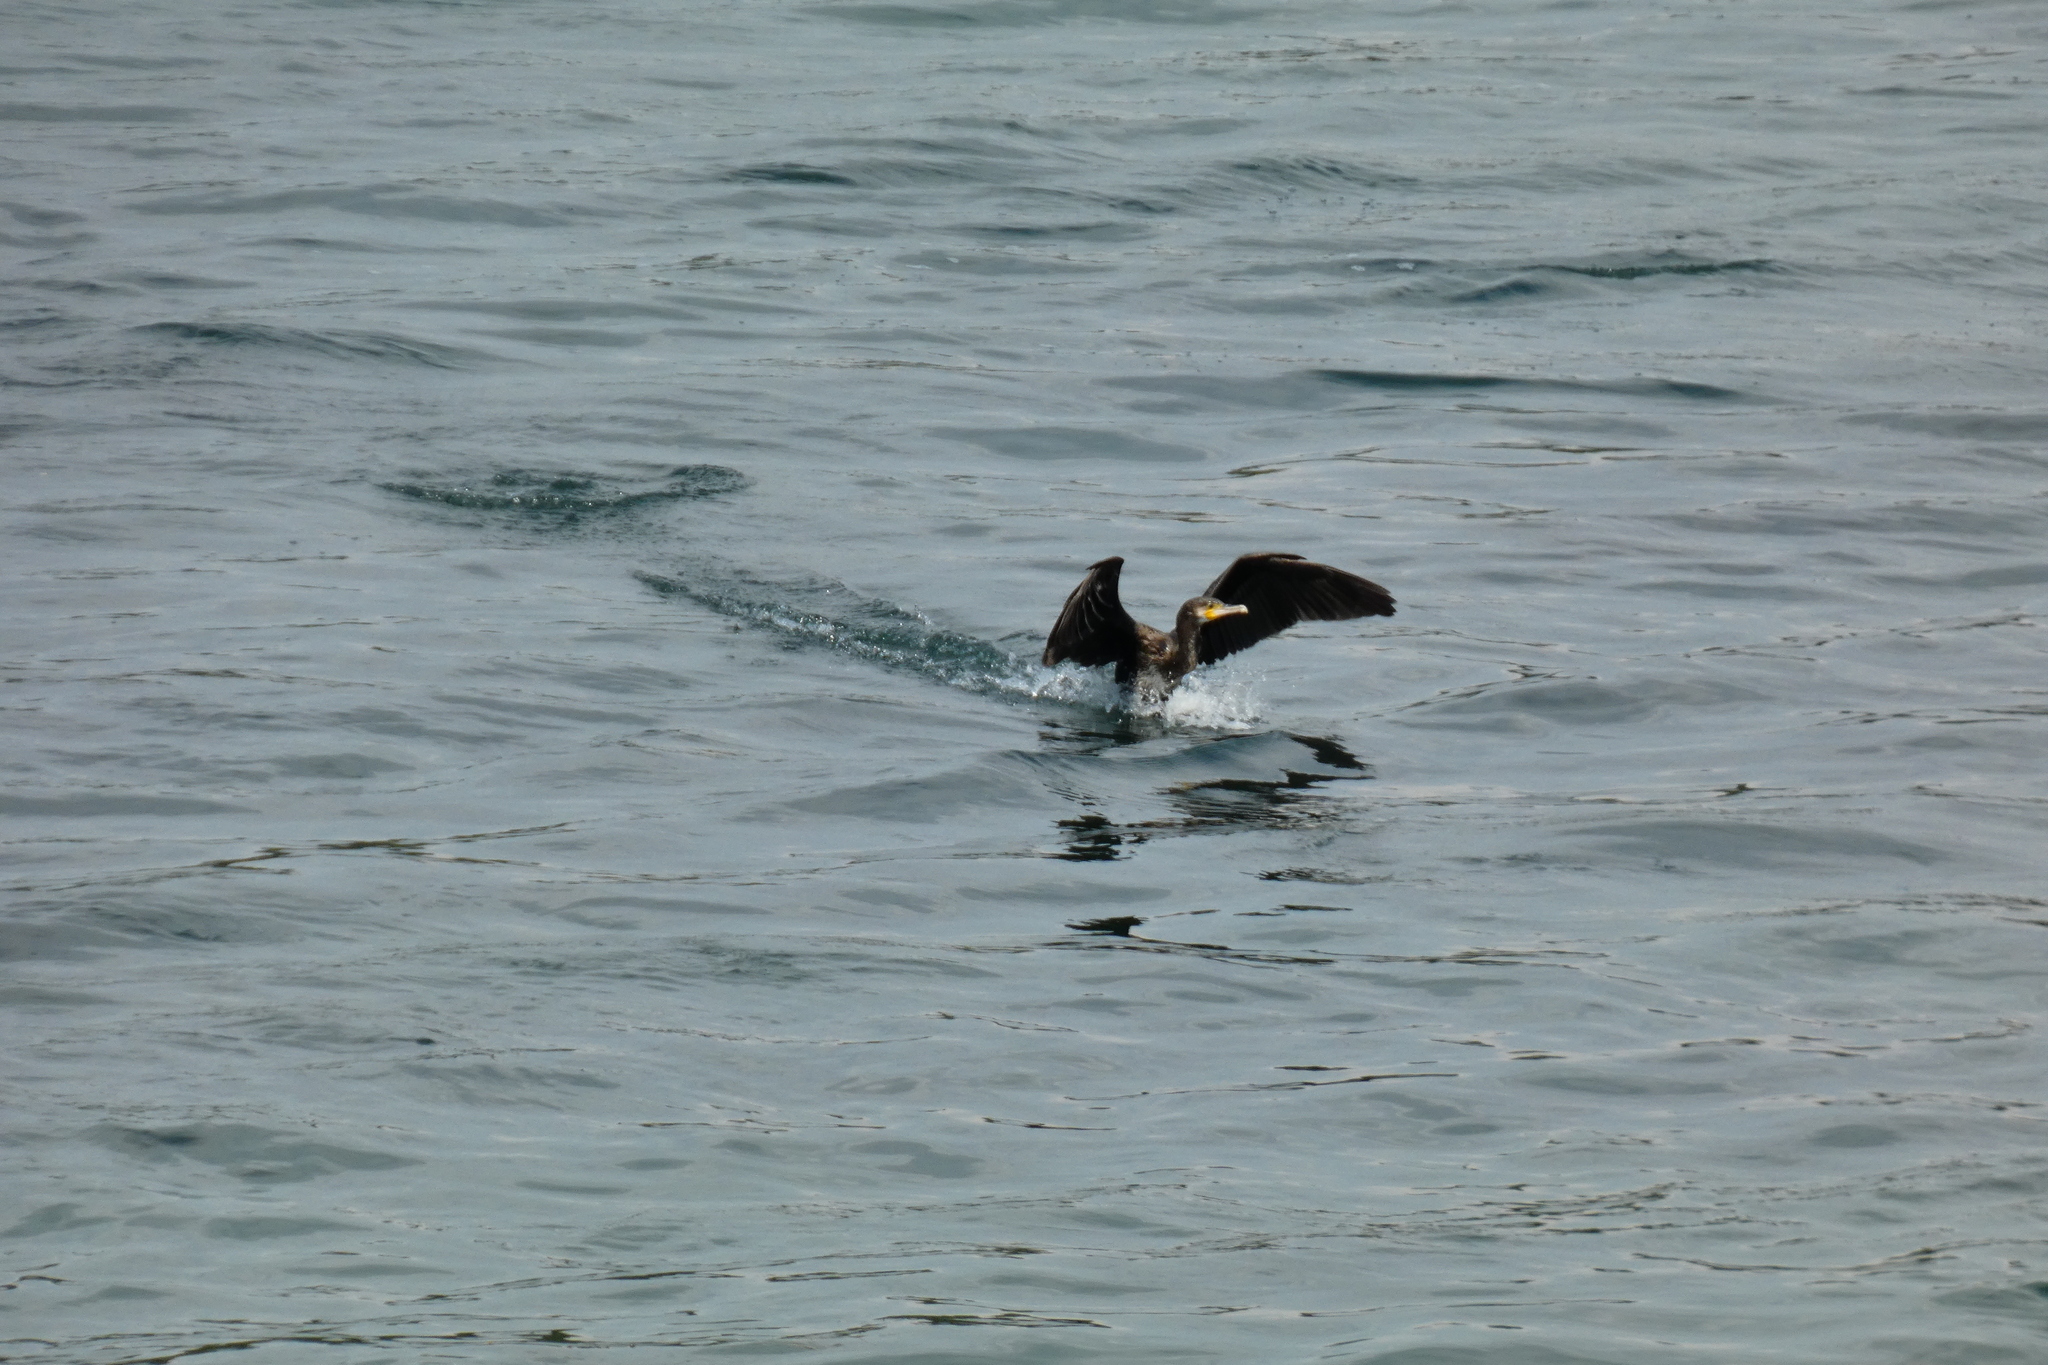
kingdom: Animalia
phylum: Chordata
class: Aves
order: Suliformes
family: Phalacrocoracidae
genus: Phalacrocorax
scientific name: Phalacrocorax carbo
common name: Great cormorant
